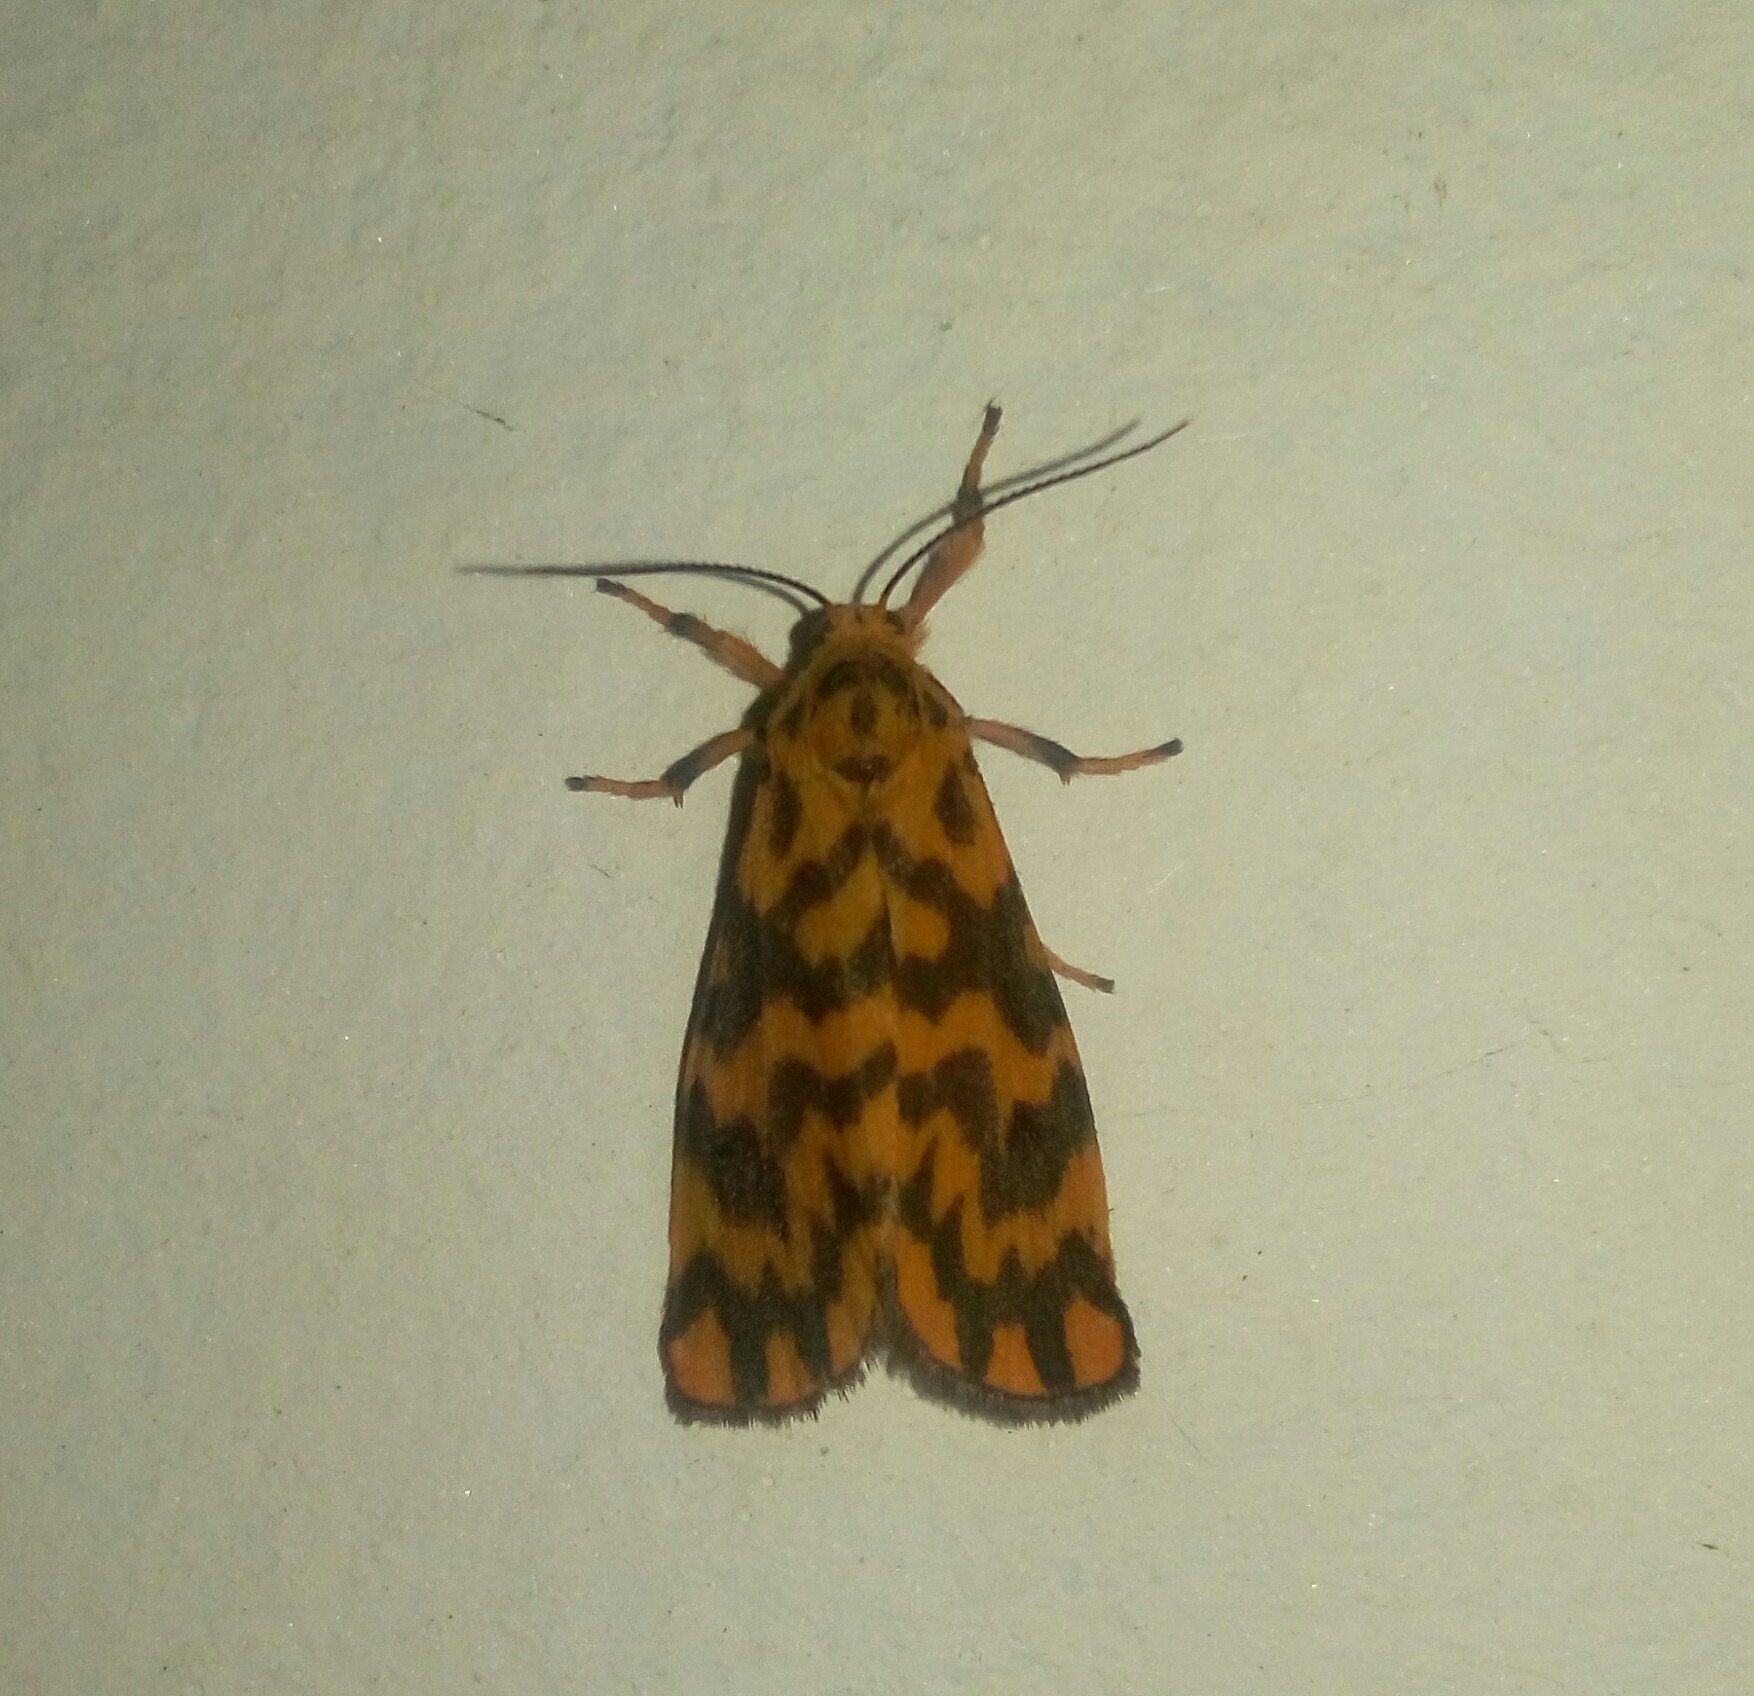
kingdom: Animalia
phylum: Arthropoda
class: Insecta
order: Lepidoptera
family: Erebidae
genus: Nepita
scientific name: Nepita conferta
